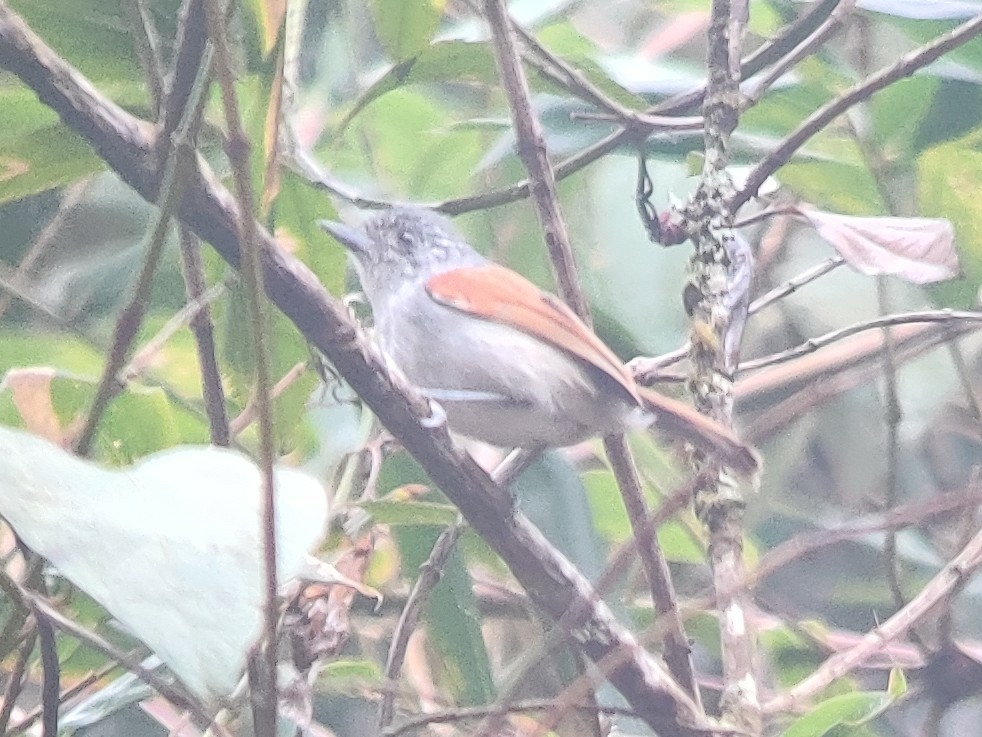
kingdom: Animalia
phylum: Chordata
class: Aves
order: Passeriformes
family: Thamnophilidae
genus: Dysithamnus
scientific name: Dysithamnus xanthopterus
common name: Rufous-backed antvireo
